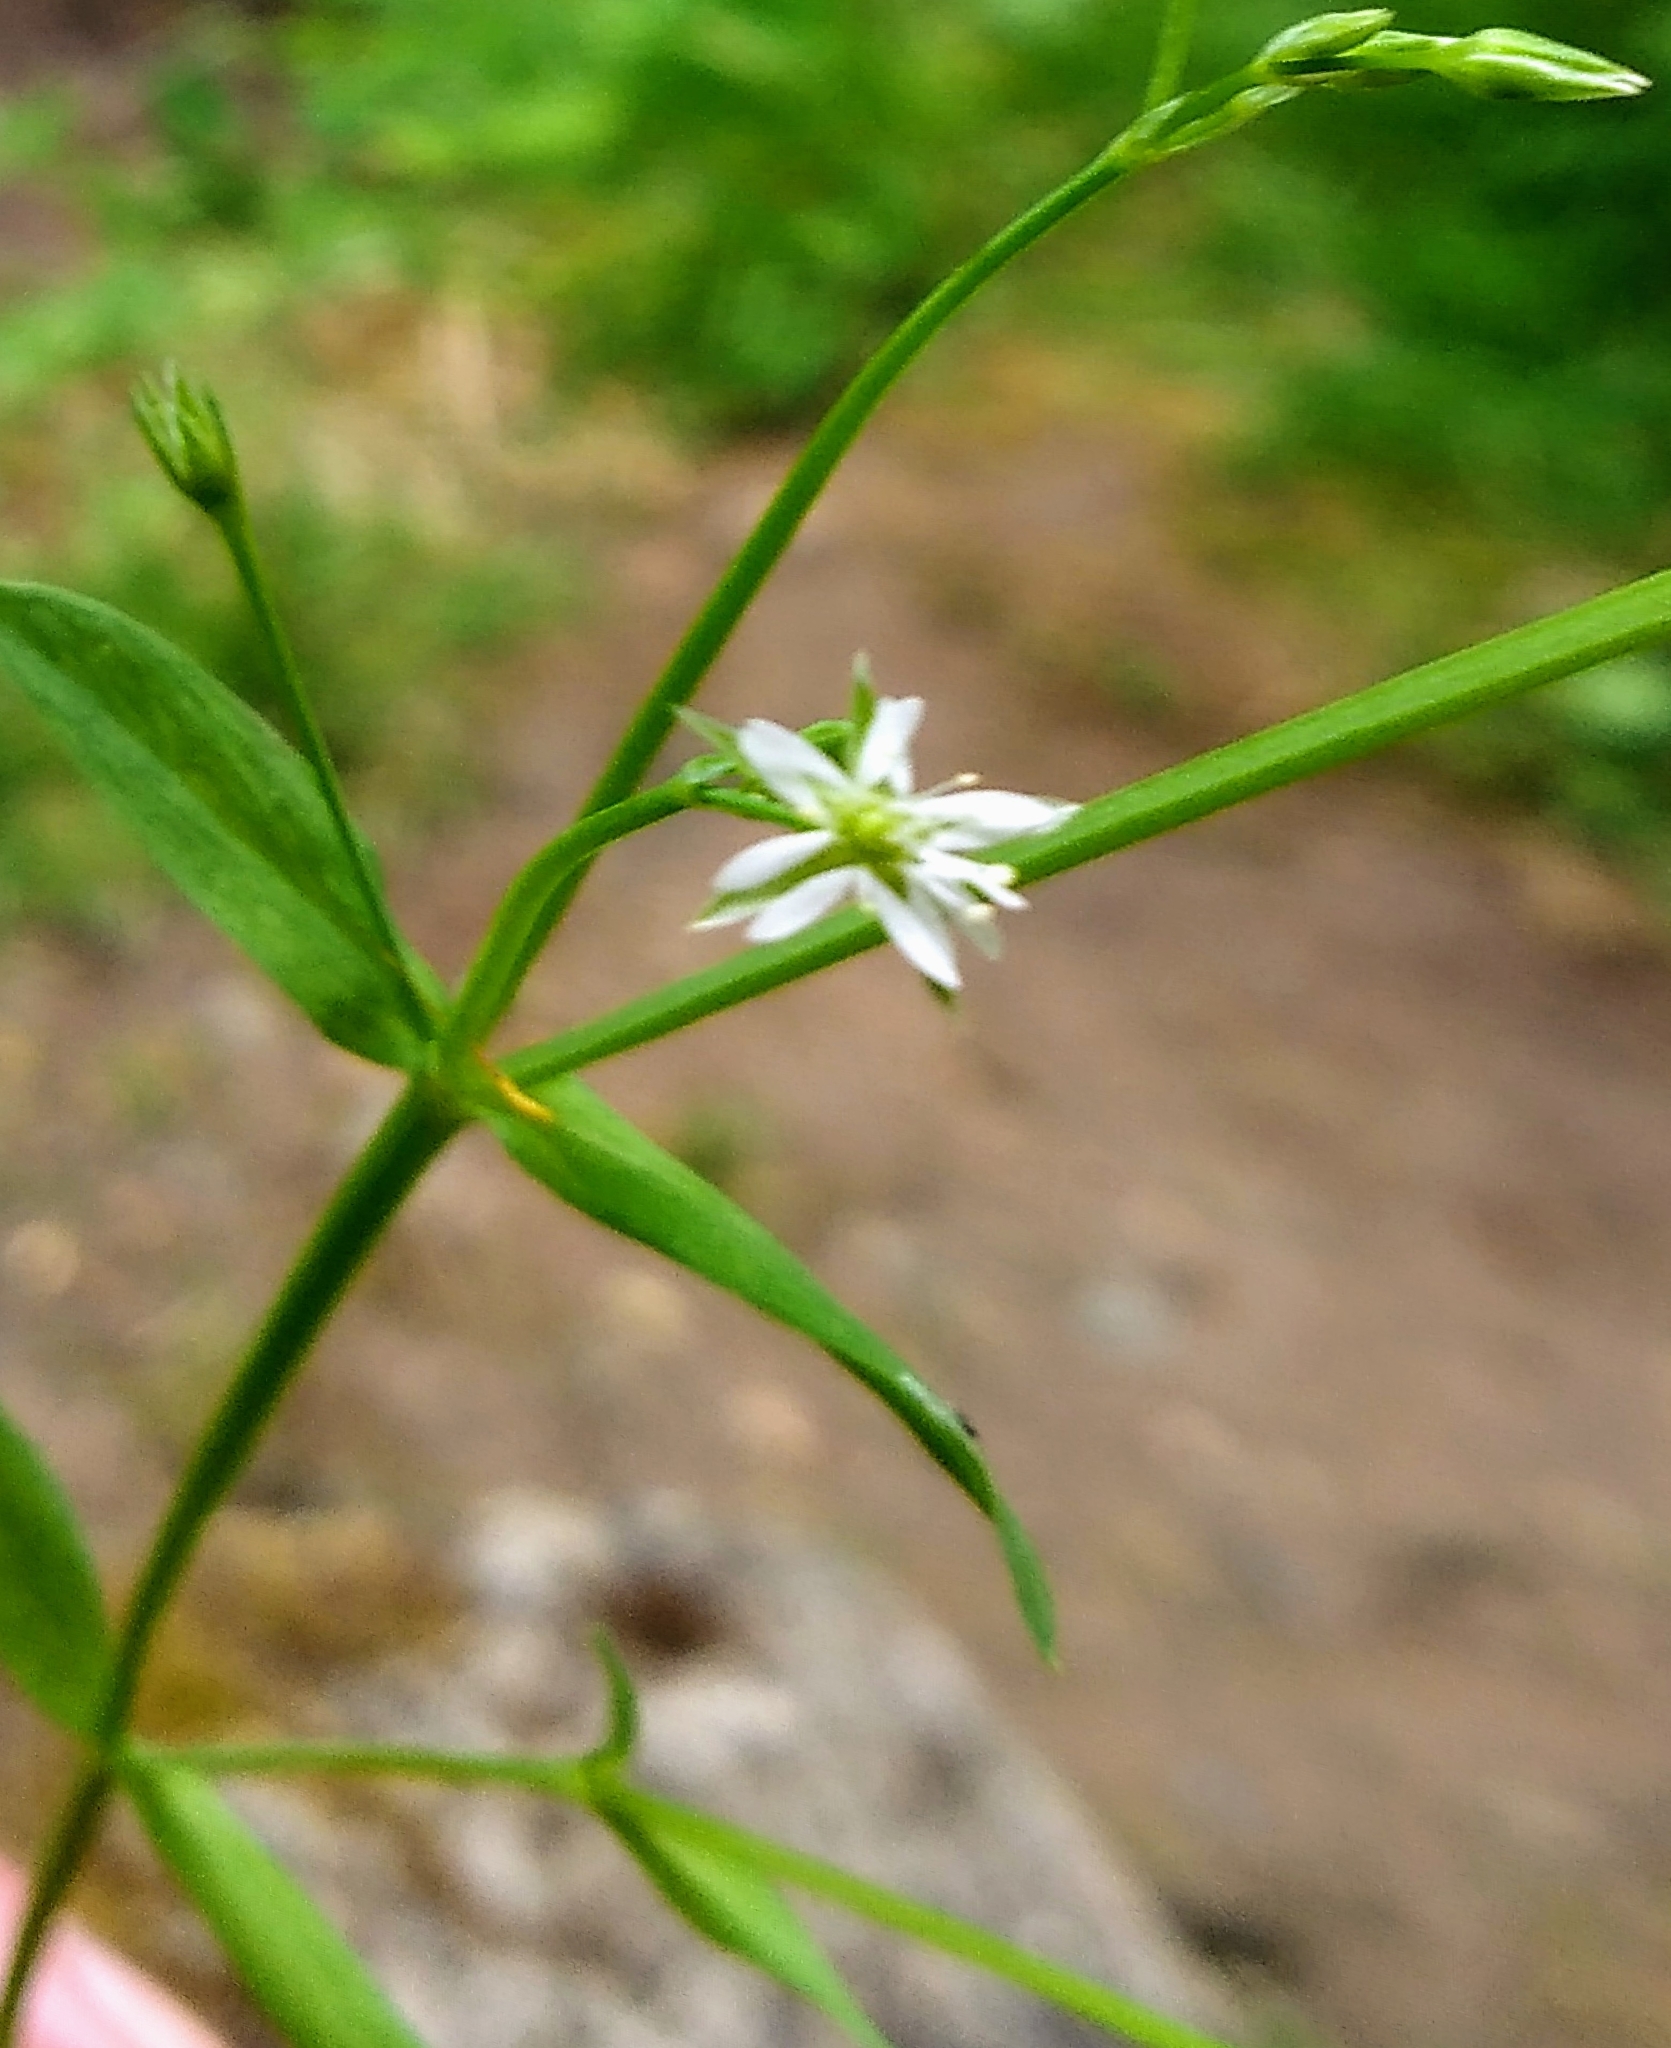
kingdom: Plantae
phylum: Tracheophyta
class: Magnoliopsida
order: Caryophyllales
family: Caryophyllaceae
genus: Stellaria
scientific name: Stellaria alsine
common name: Bog stitchwort
